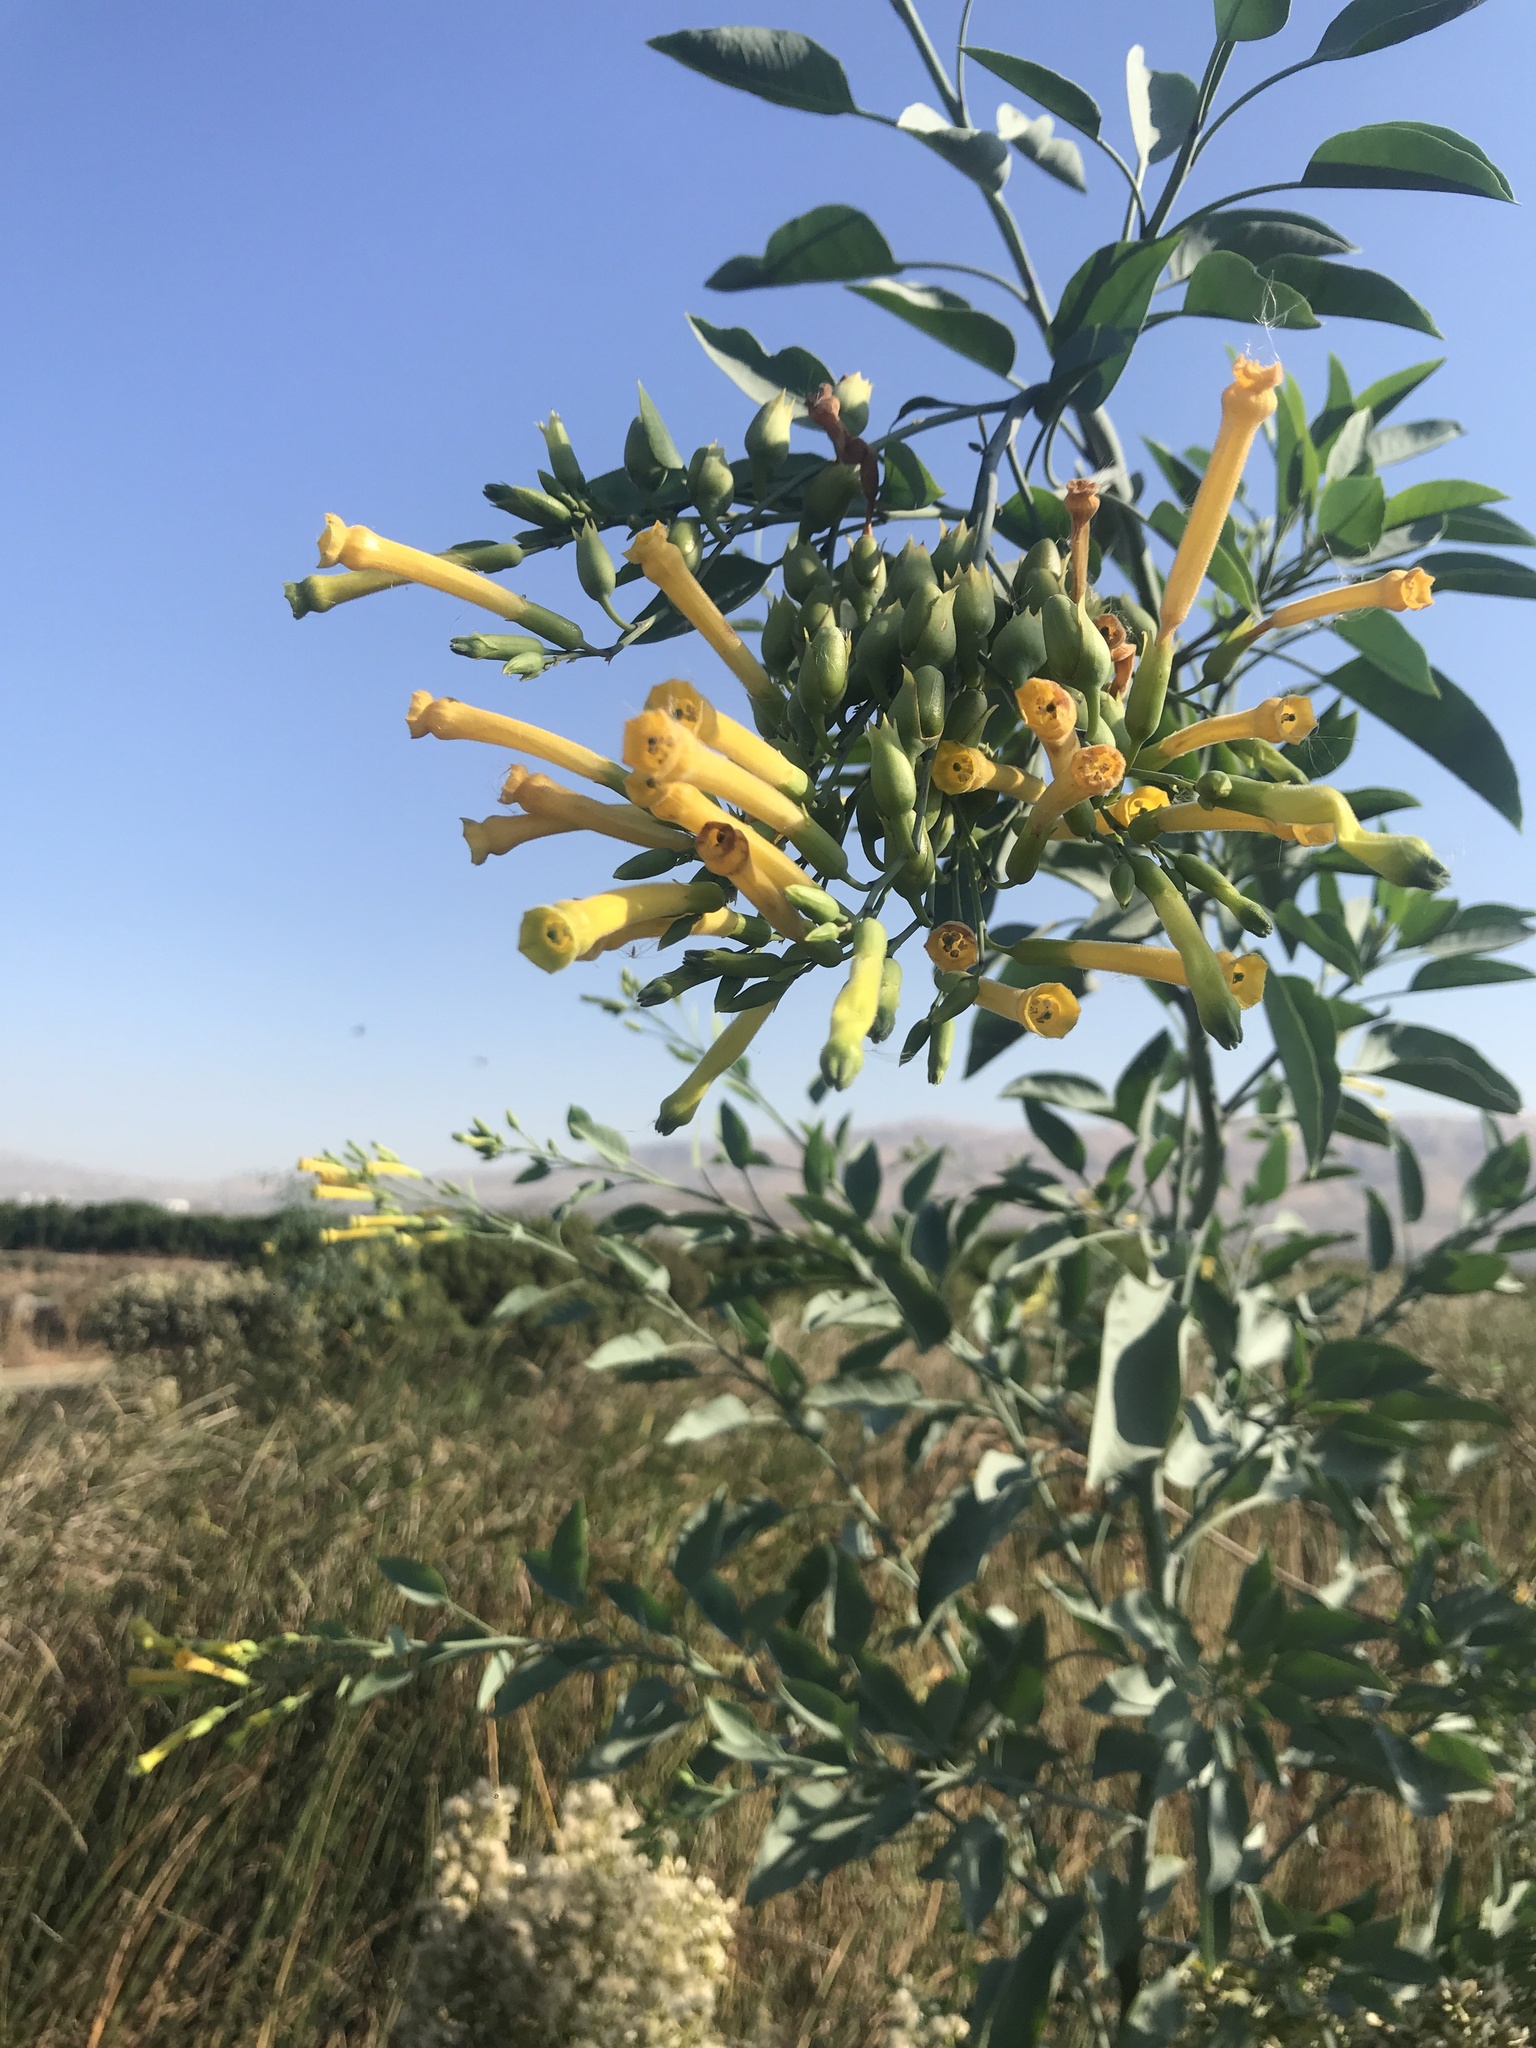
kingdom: Plantae
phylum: Tracheophyta
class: Magnoliopsida
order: Solanales
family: Solanaceae
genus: Nicotiana
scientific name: Nicotiana glauca
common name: Tree tobacco
